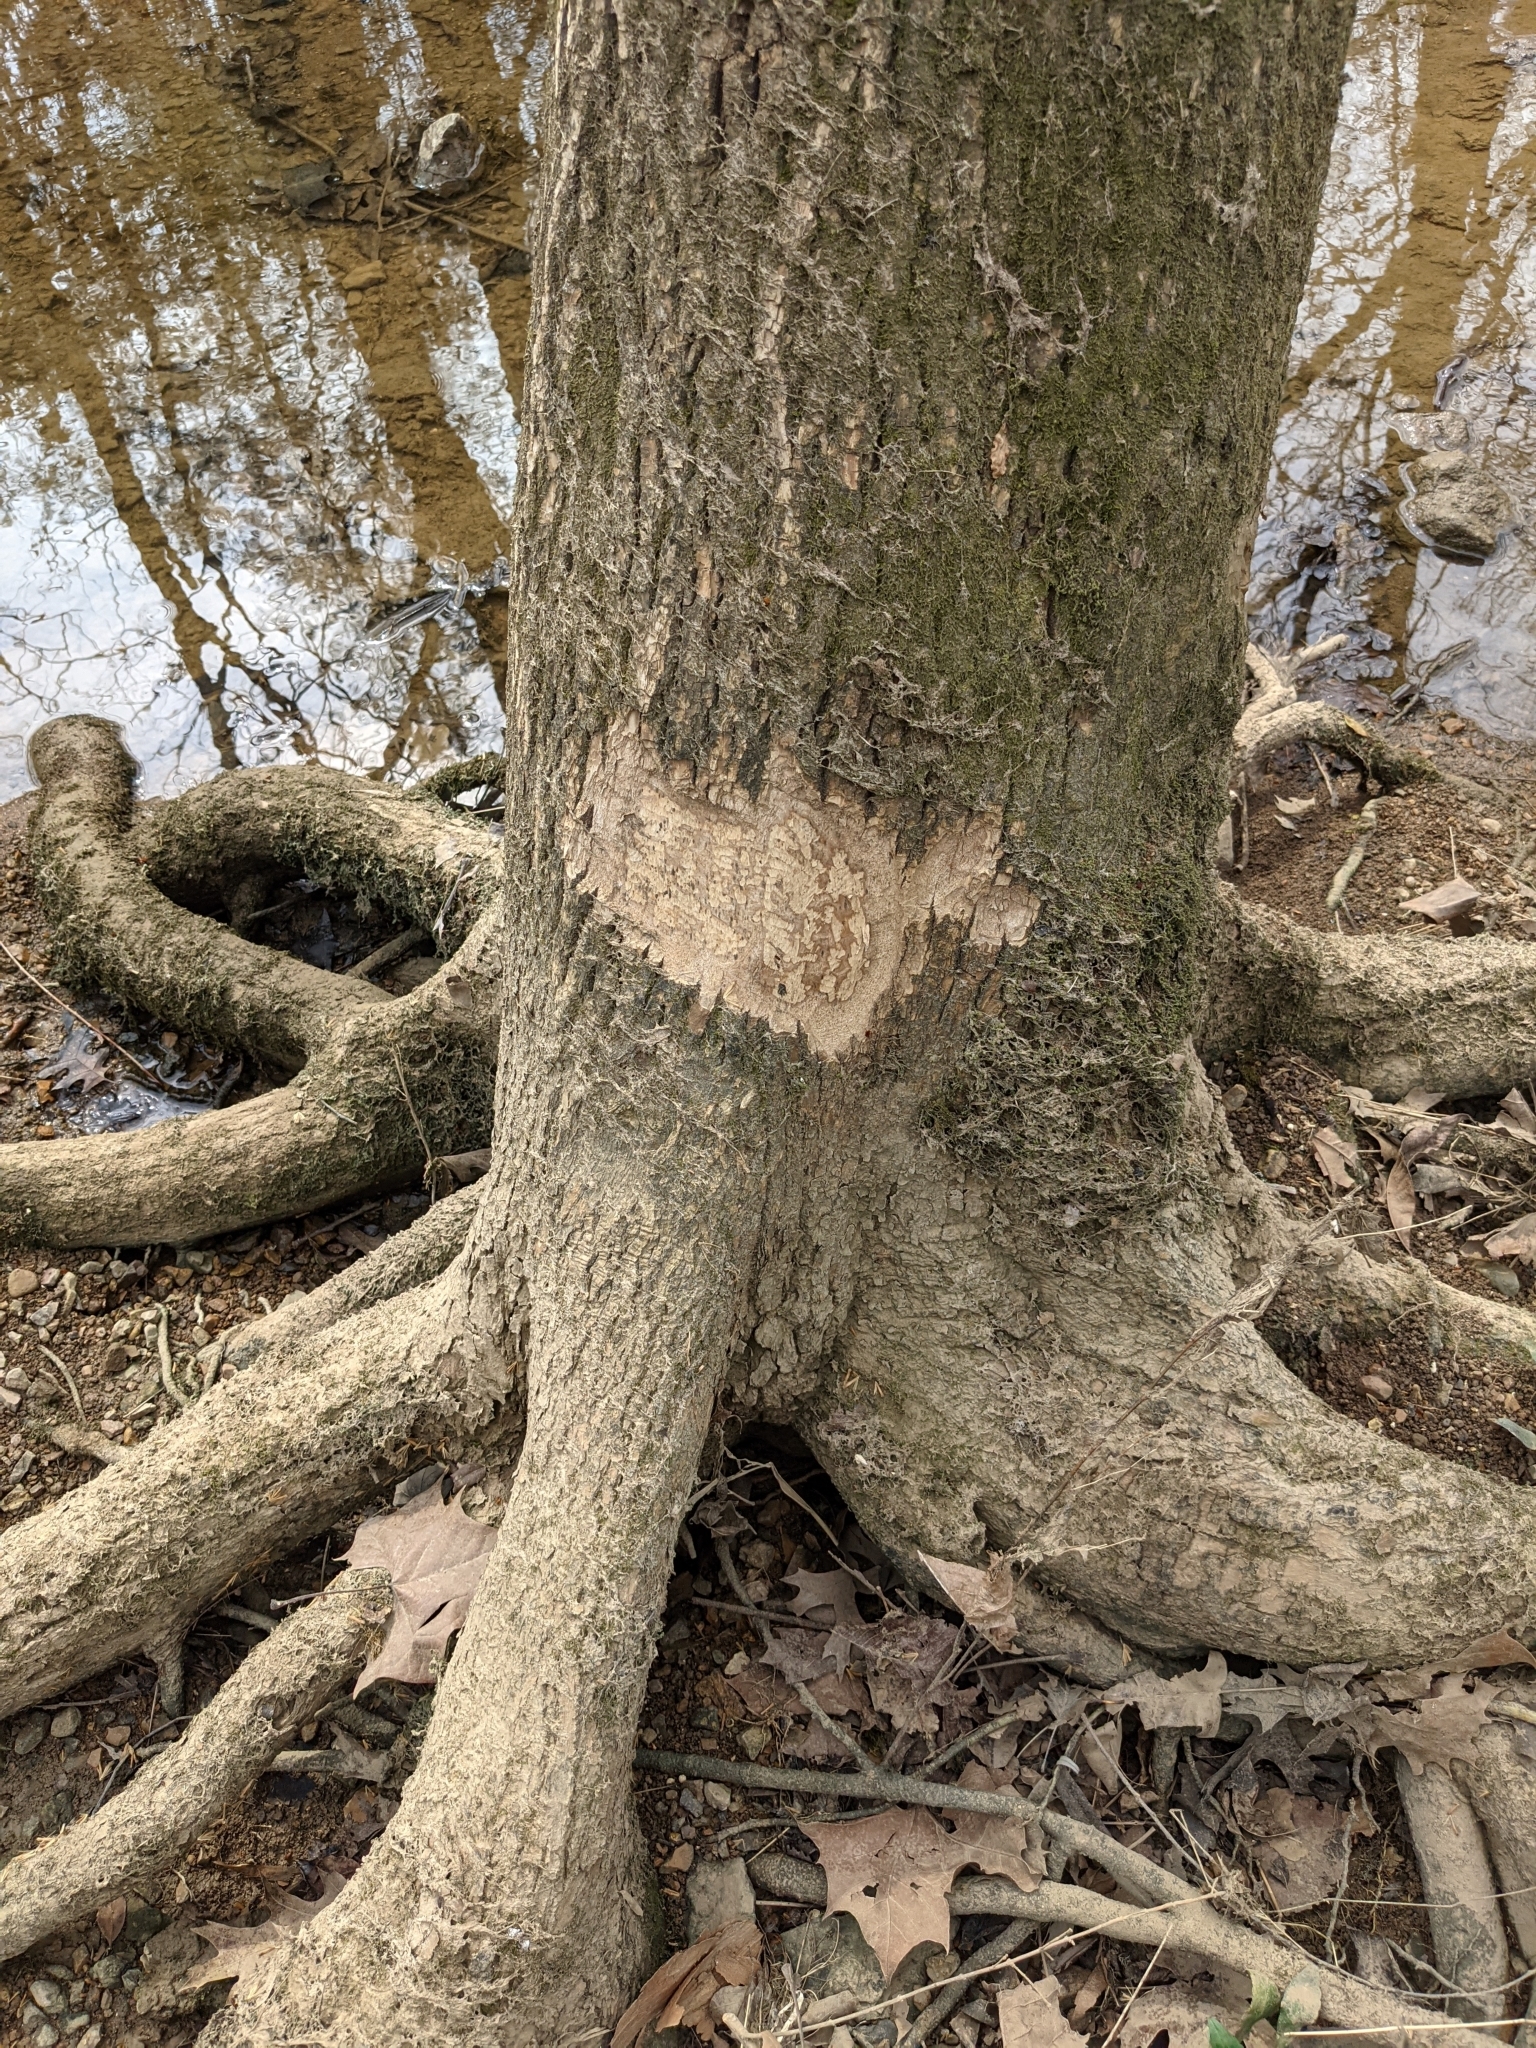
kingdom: Animalia
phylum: Chordata
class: Mammalia
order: Rodentia
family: Castoridae
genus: Castor
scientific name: Castor canadensis
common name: American beaver
